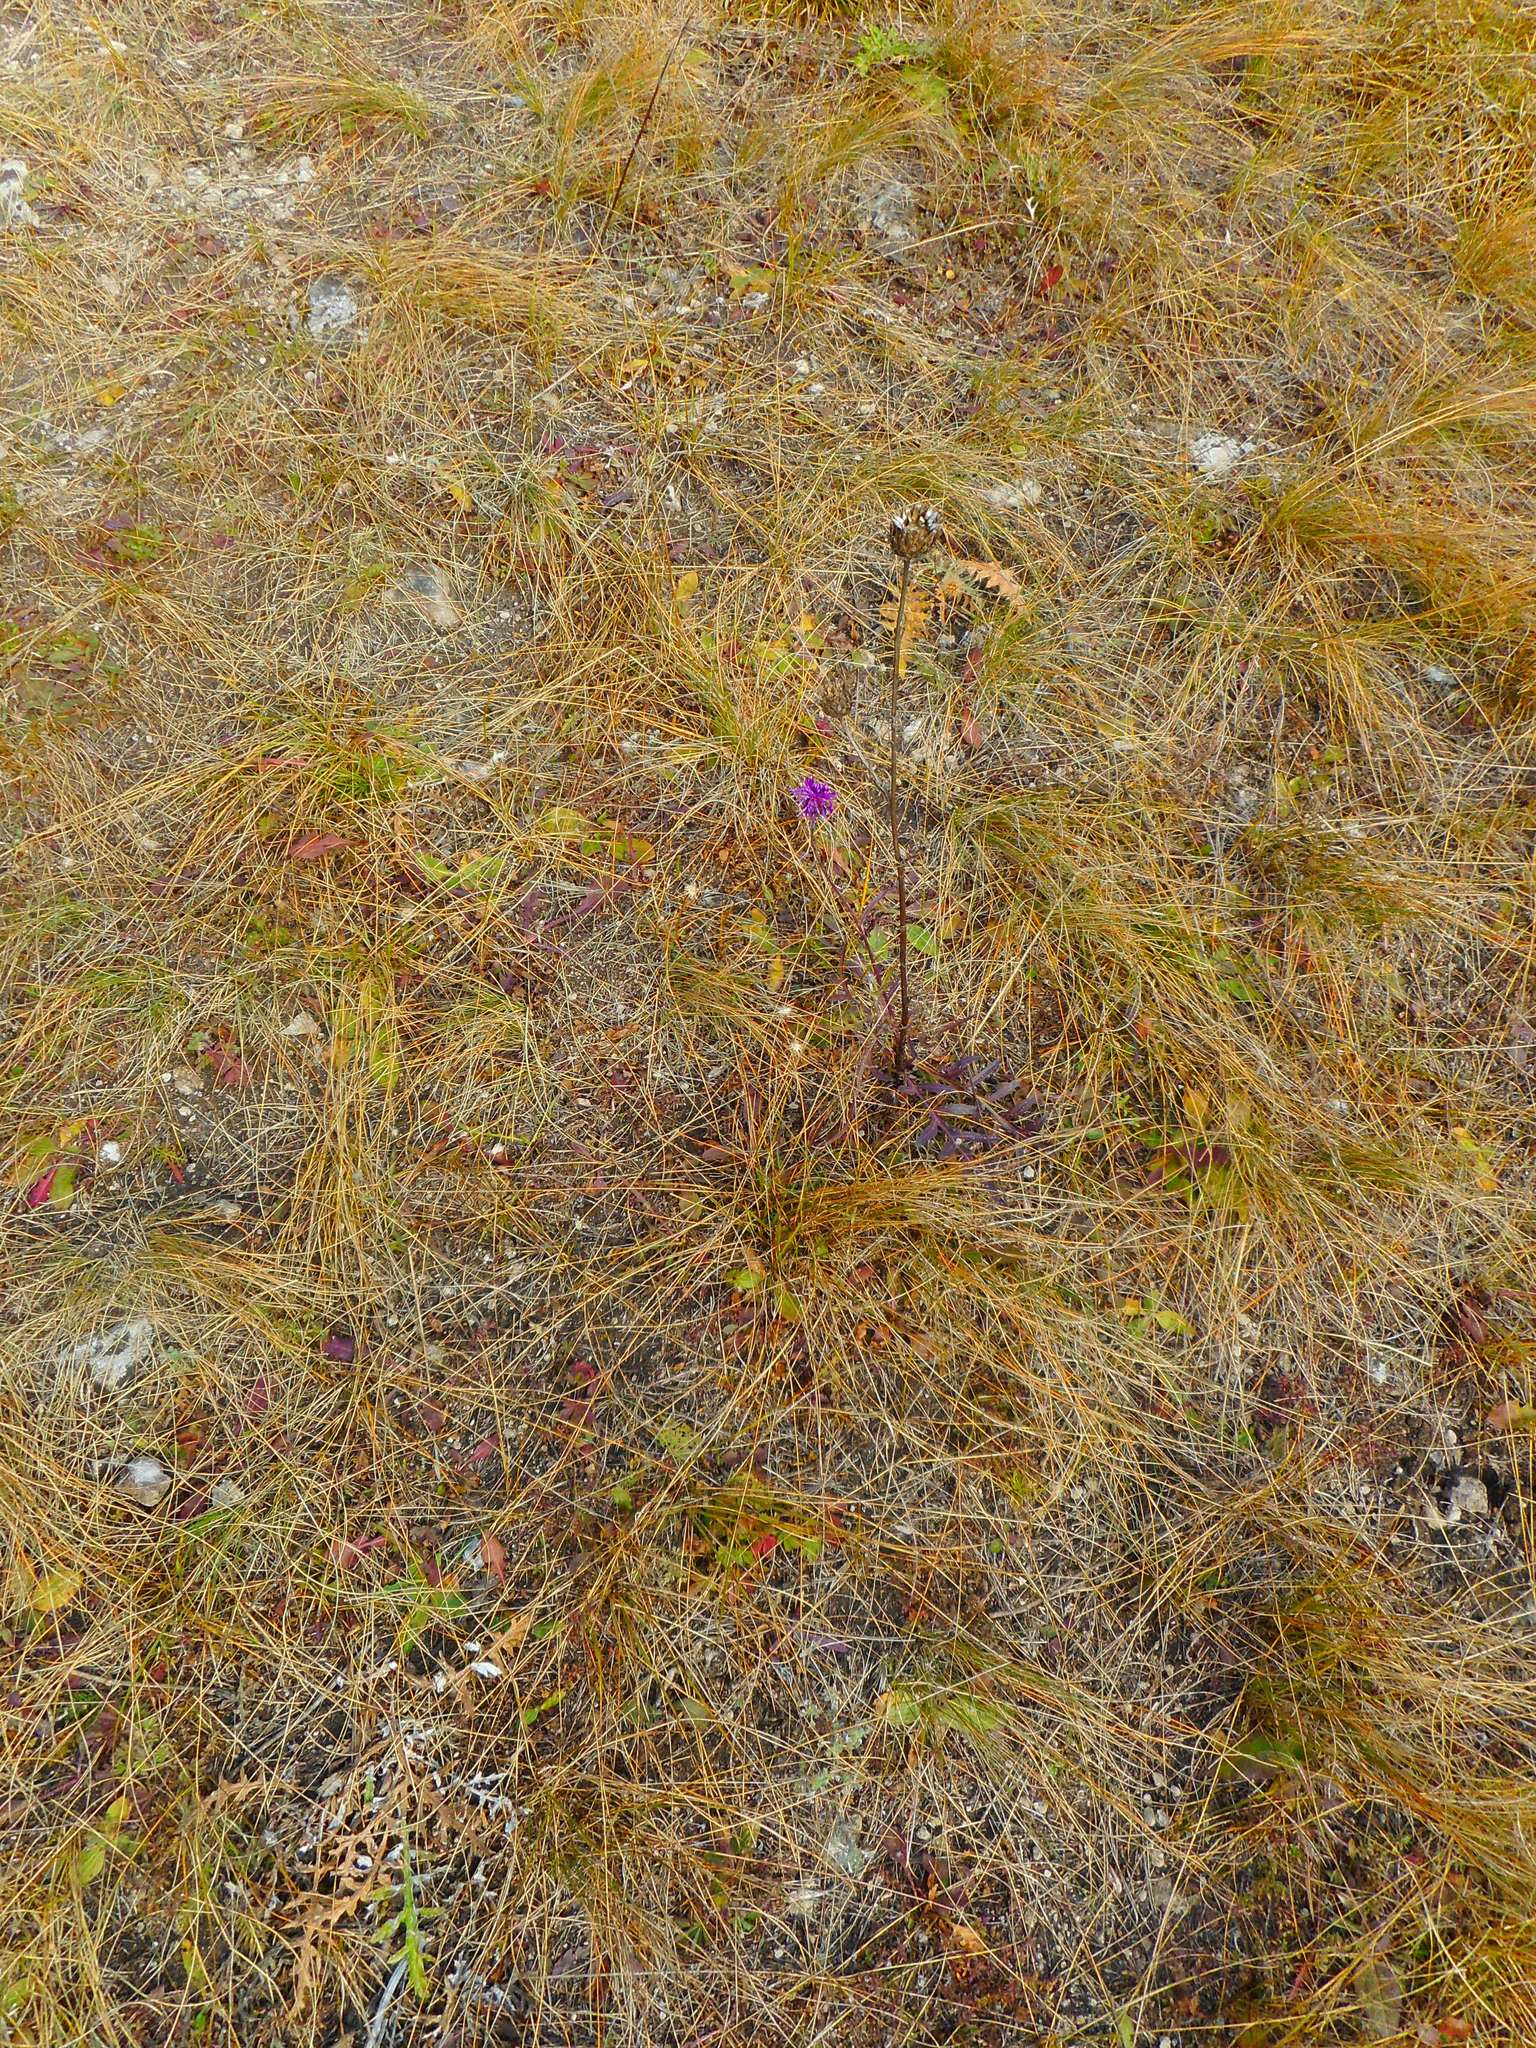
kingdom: Plantae
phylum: Tracheophyta
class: Magnoliopsida
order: Asterales
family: Asteraceae
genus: Centaurea
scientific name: Centaurea scabiosa
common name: Greater knapweed
